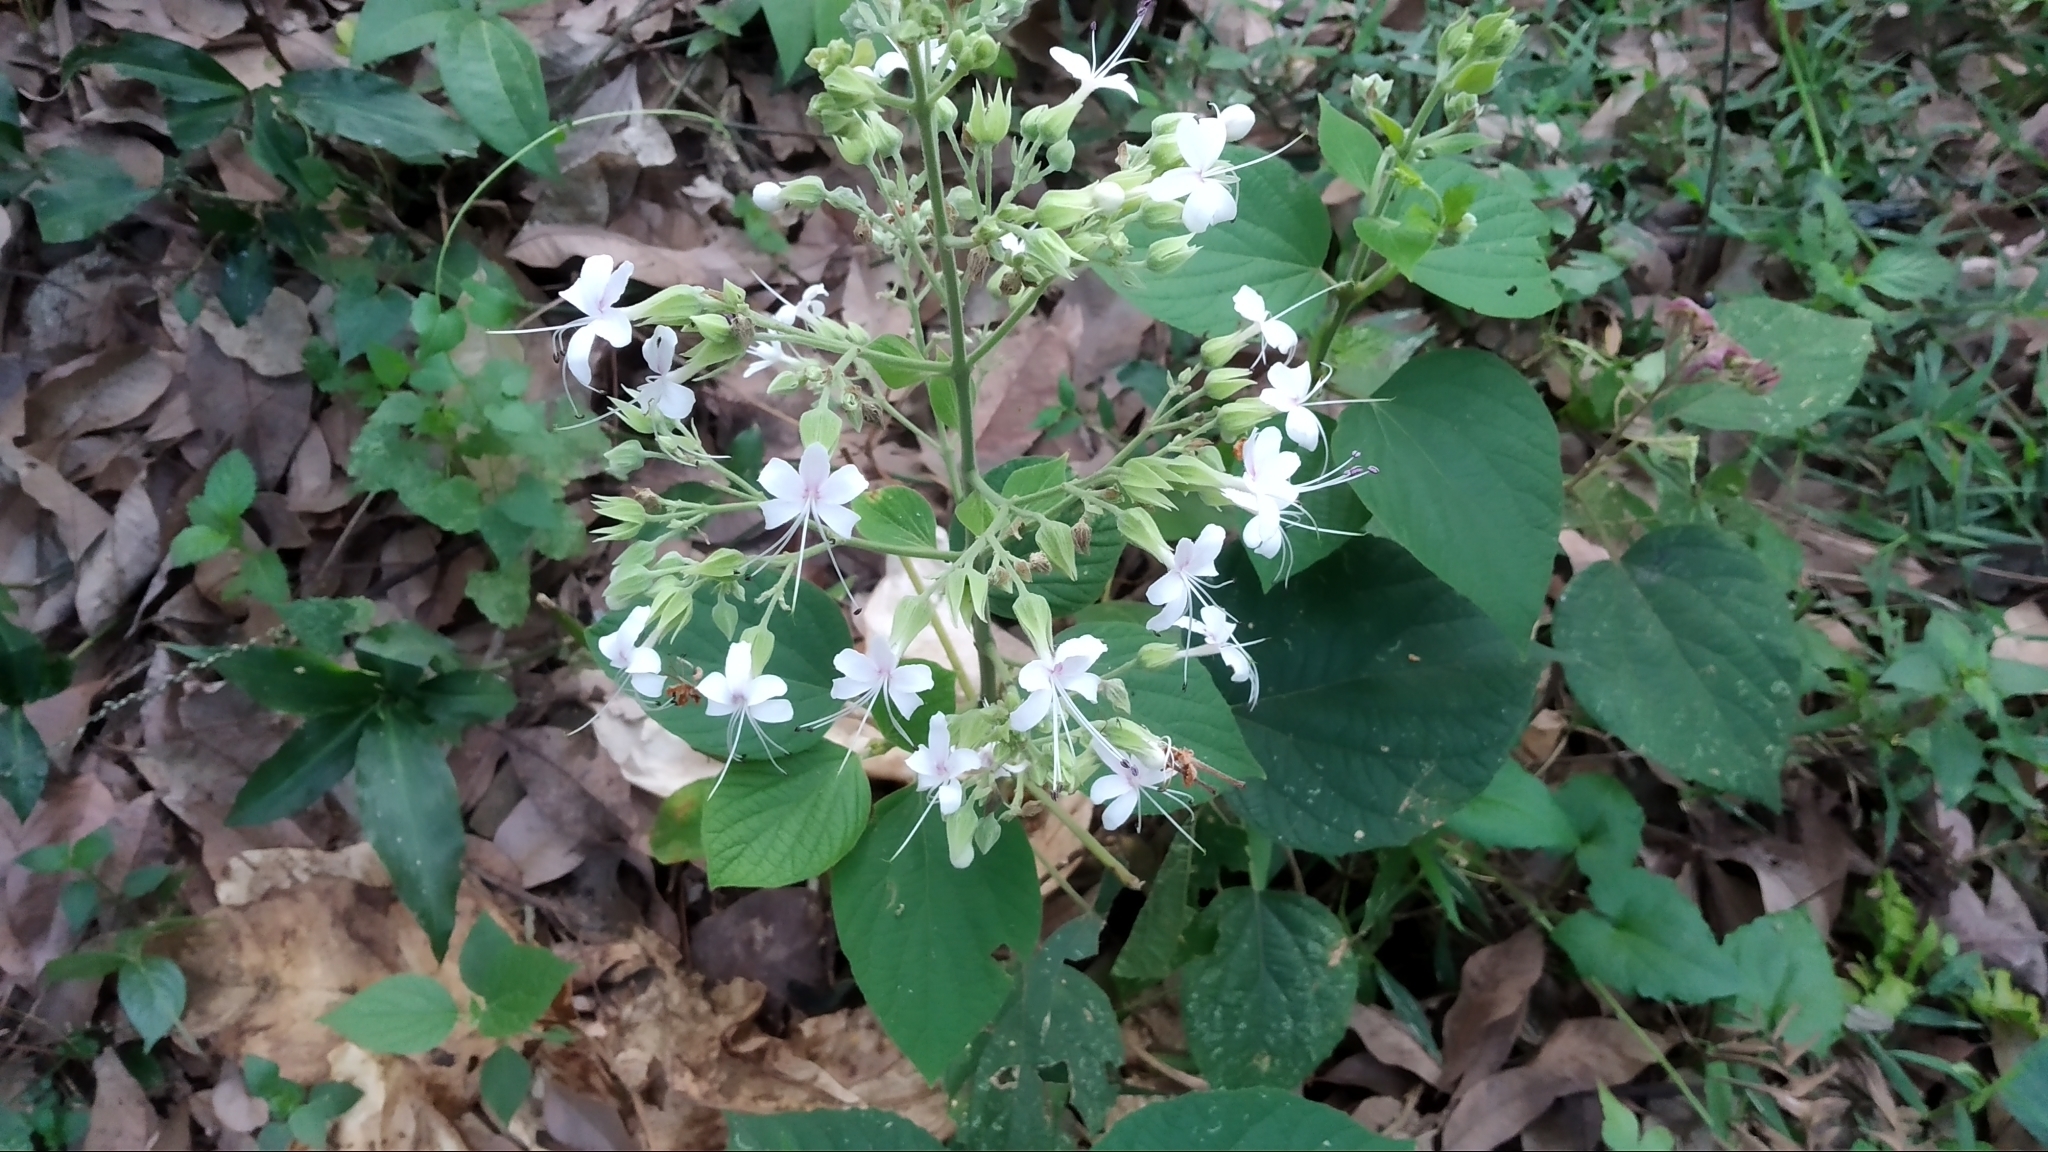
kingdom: Plantae
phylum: Tracheophyta
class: Magnoliopsida
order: Lamiales
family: Lamiaceae
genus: Clerodendrum
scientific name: Clerodendrum infortunatum
